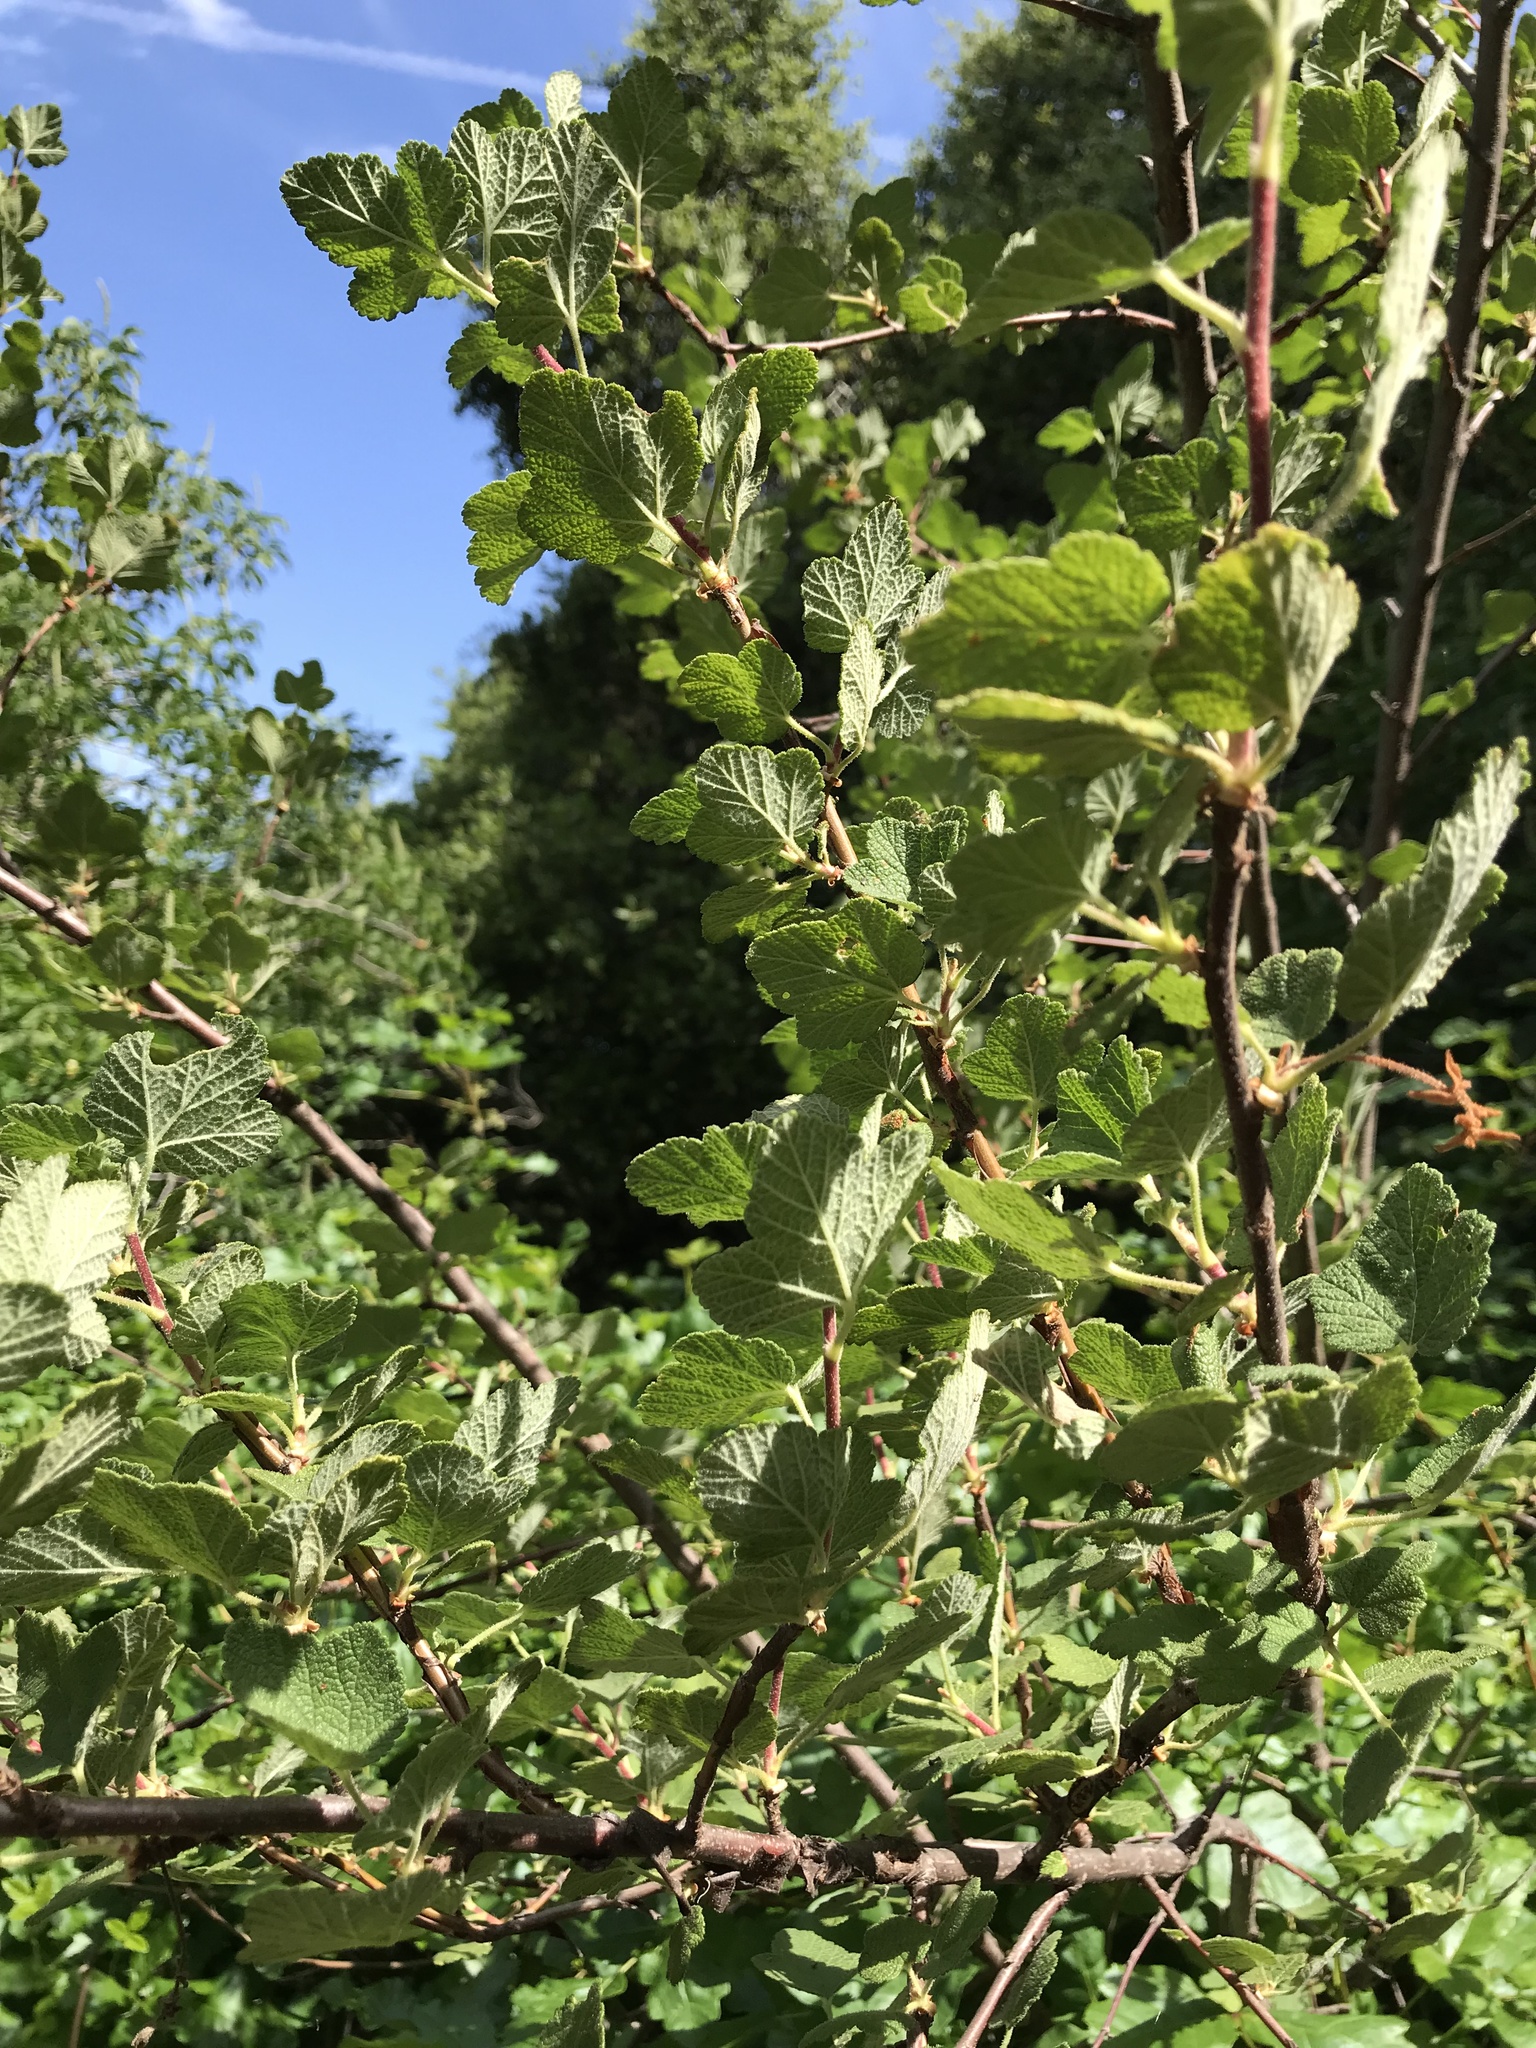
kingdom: Plantae
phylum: Tracheophyta
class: Magnoliopsida
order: Saxifragales
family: Grossulariaceae
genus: Ribes
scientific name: Ribes malvaceum
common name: Chaparral currant
